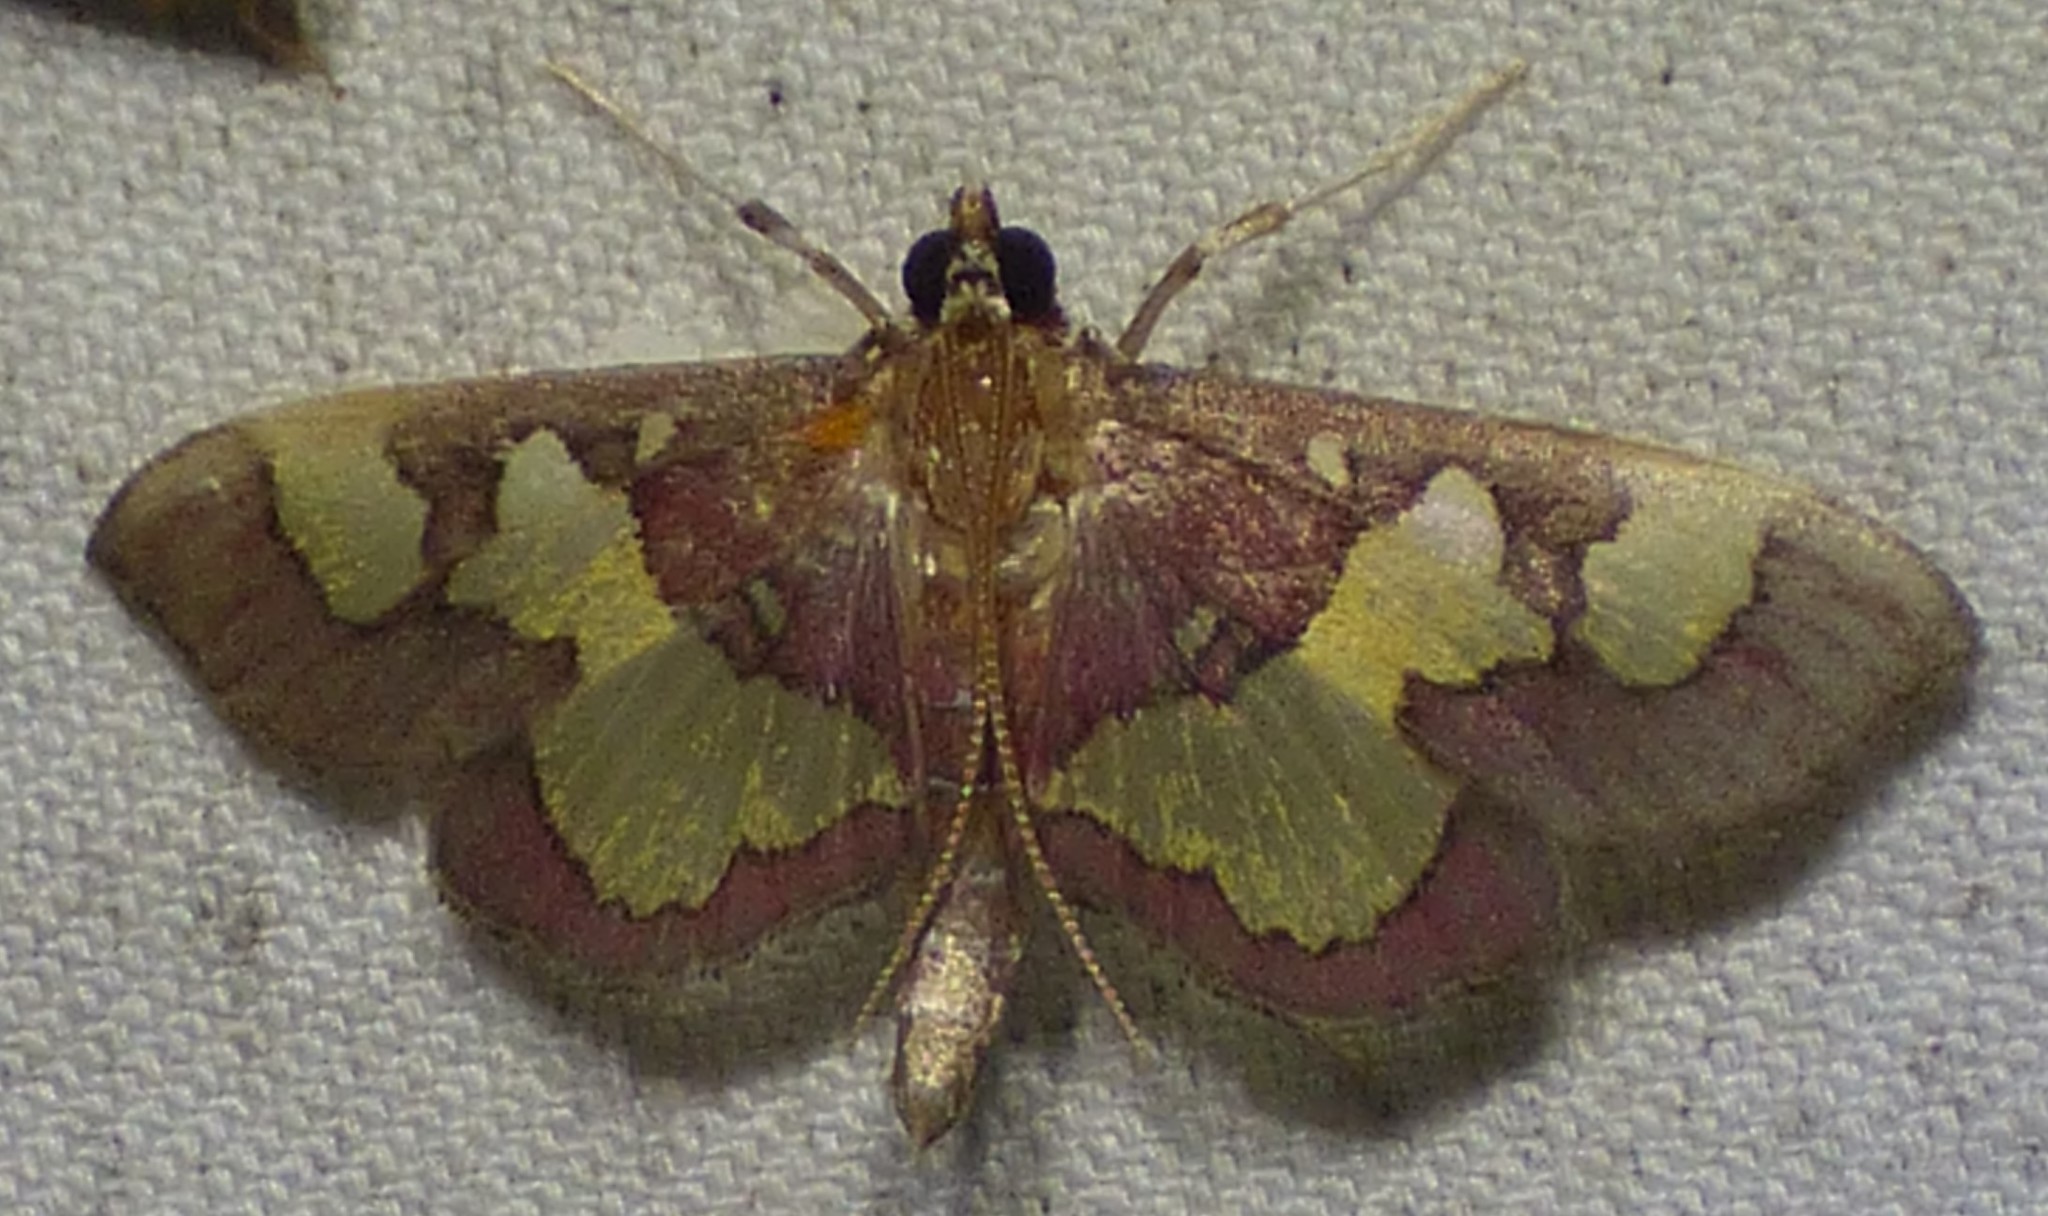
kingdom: Animalia
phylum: Arthropoda
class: Insecta
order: Lepidoptera
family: Crambidae
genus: Colomychus
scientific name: Colomychus talis
